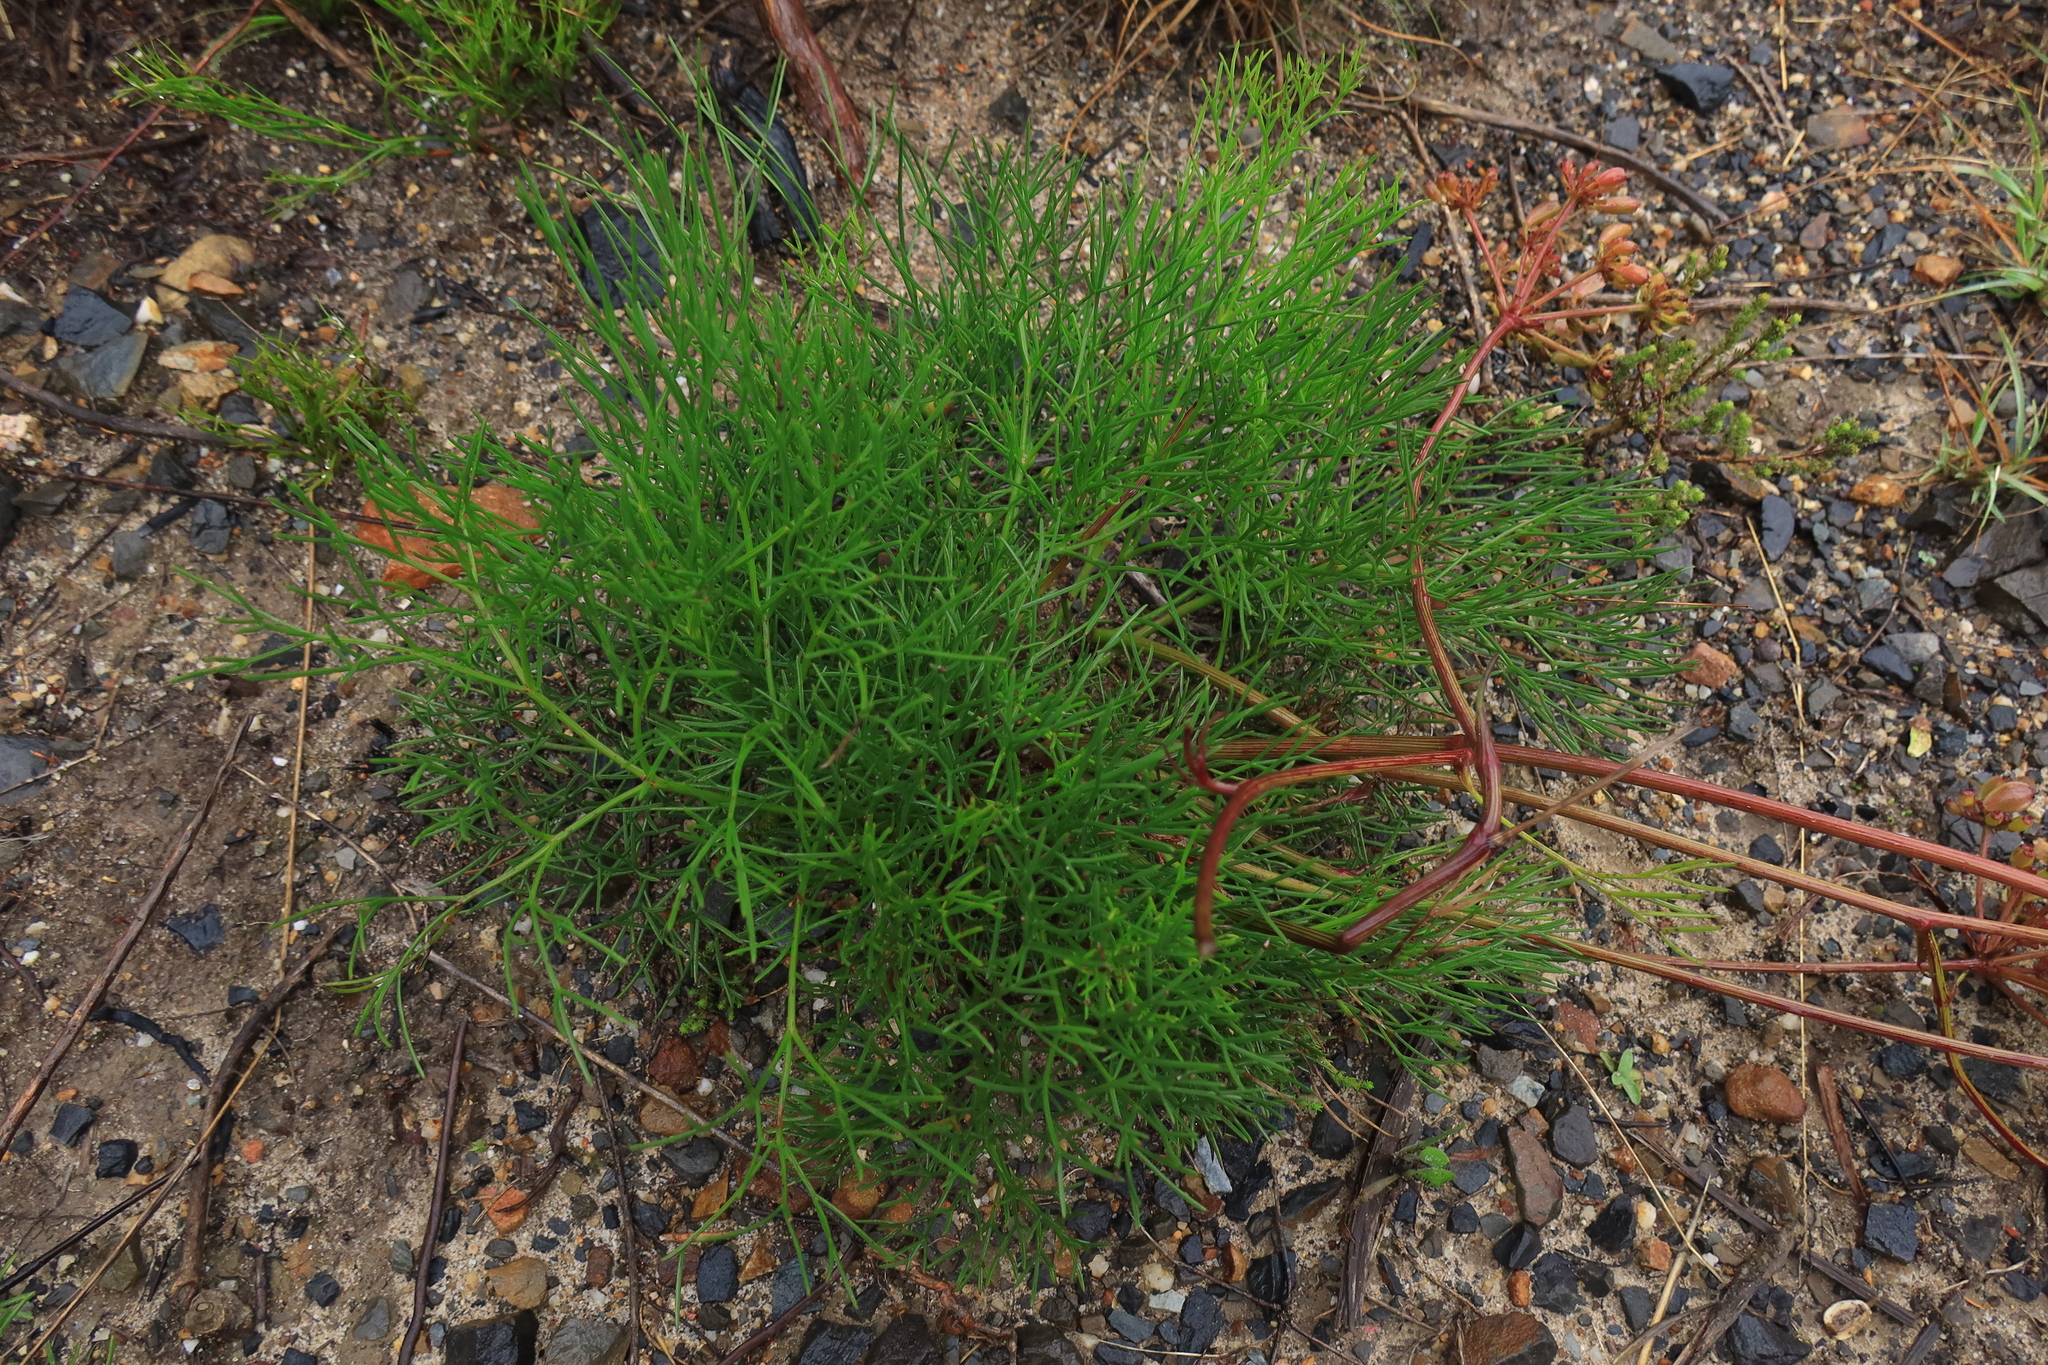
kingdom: Plantae
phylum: Tracheophyta
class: Magnoliopsida
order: Apiales
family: Apiaceae
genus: Nanobubon
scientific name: Nanobubon strictum
